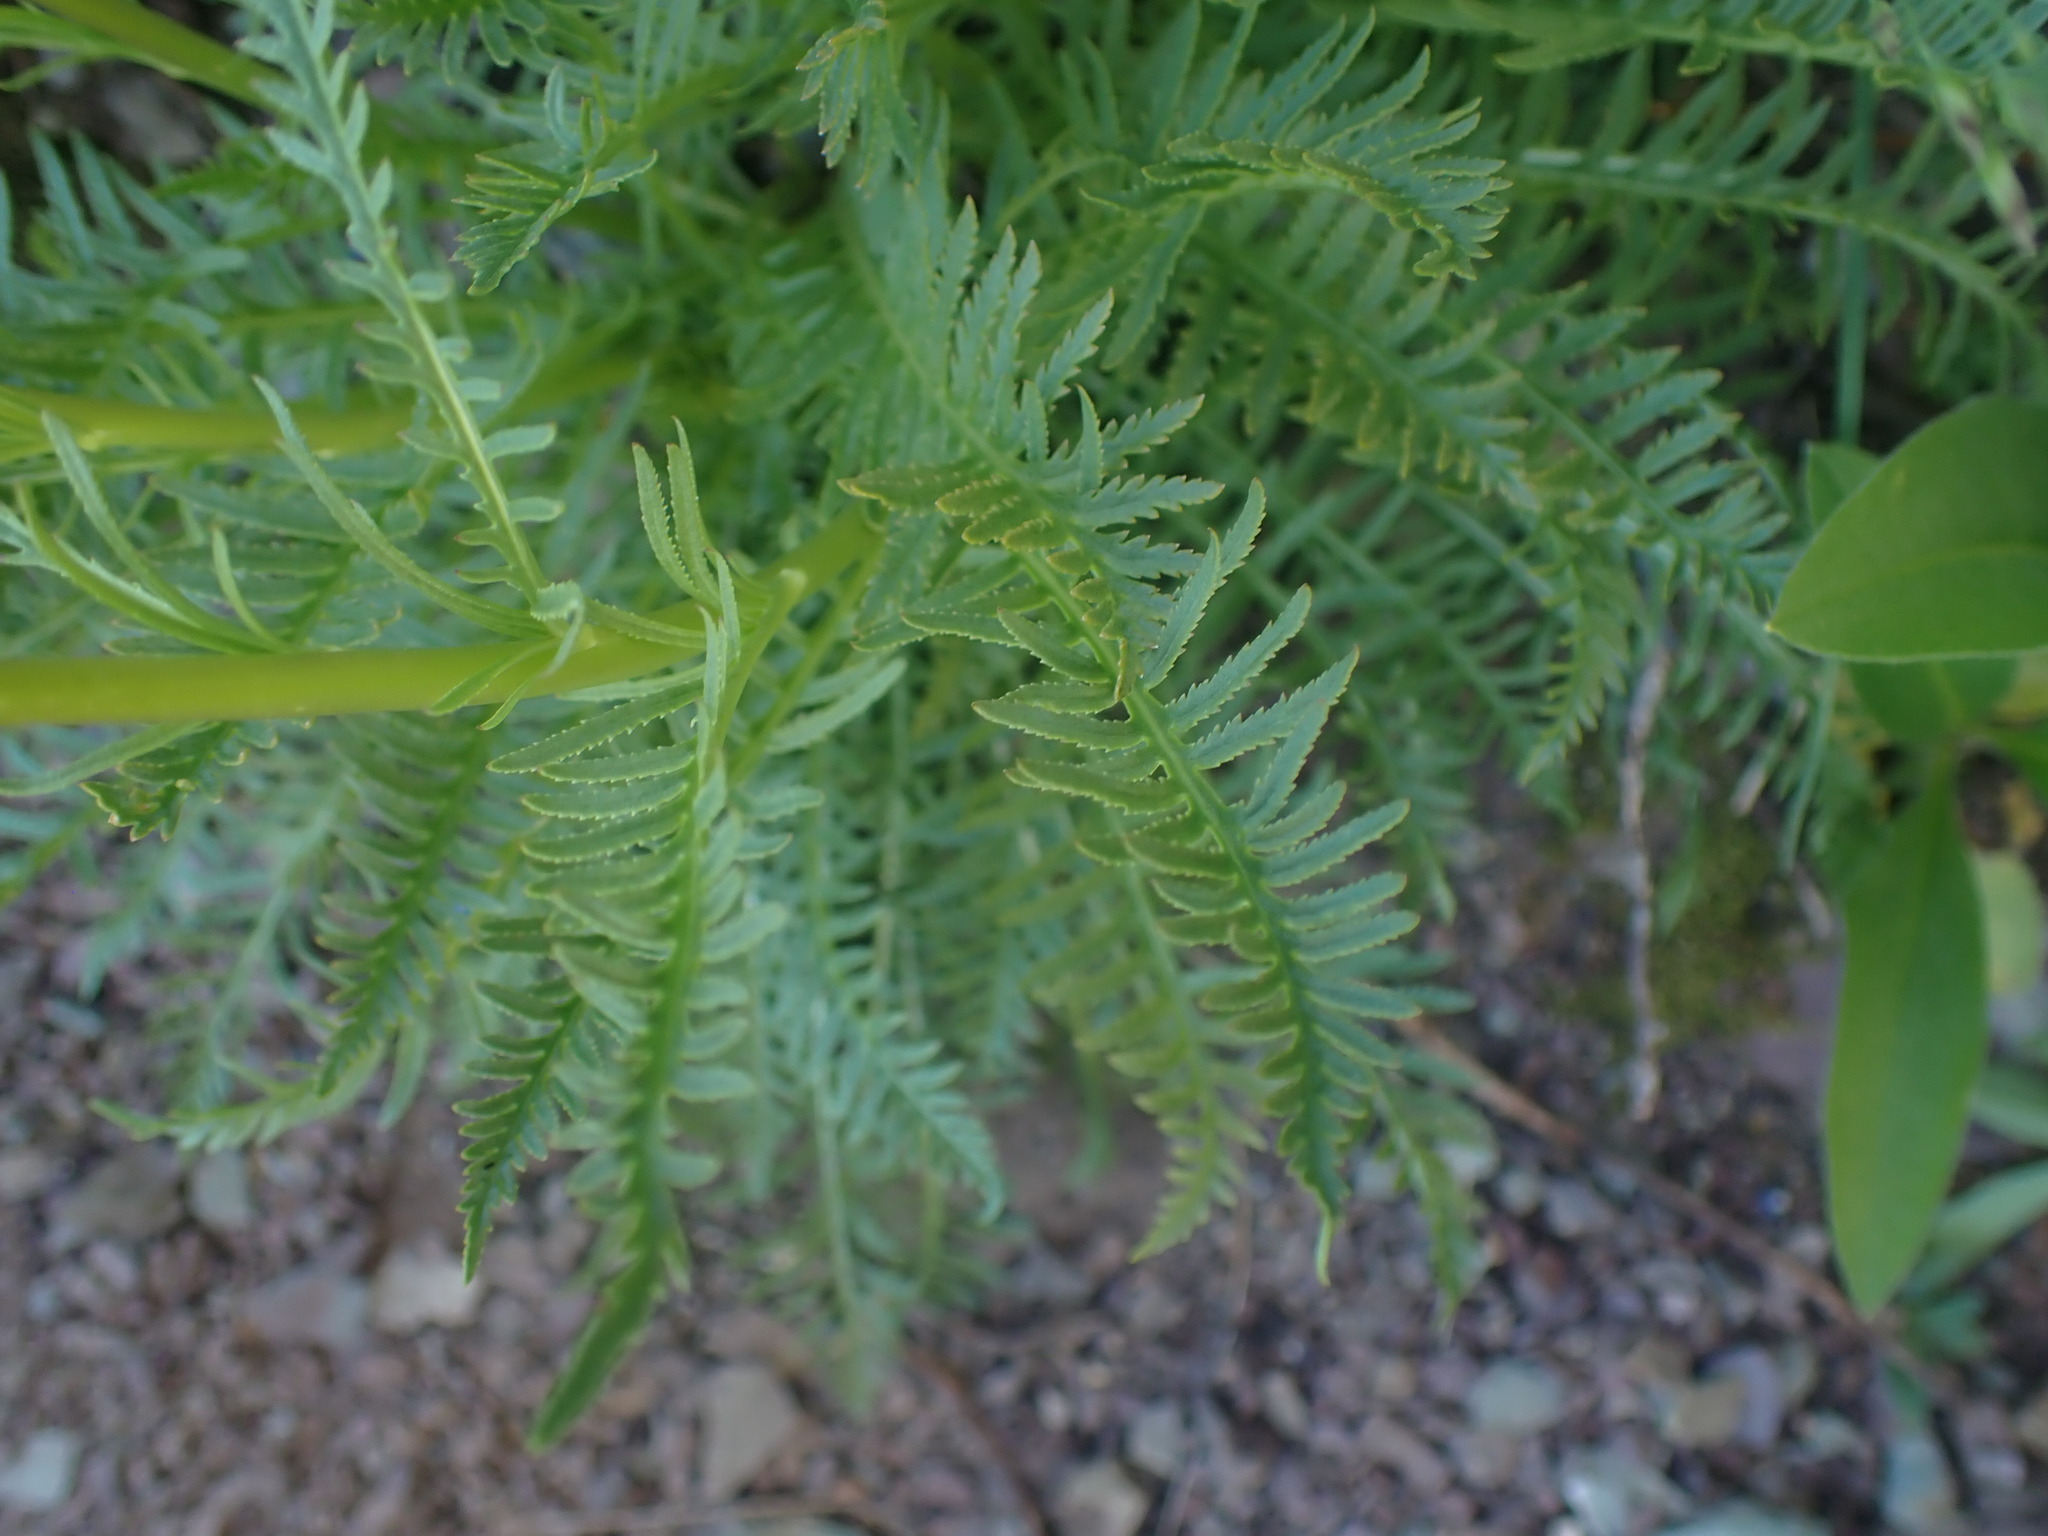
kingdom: Plantae
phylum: Tracheophyta
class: Magnoliopsida
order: Lamiales
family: Orobanchaceae
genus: Pedicularis
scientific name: Pedicularis contorta
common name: Coiled lousewort
